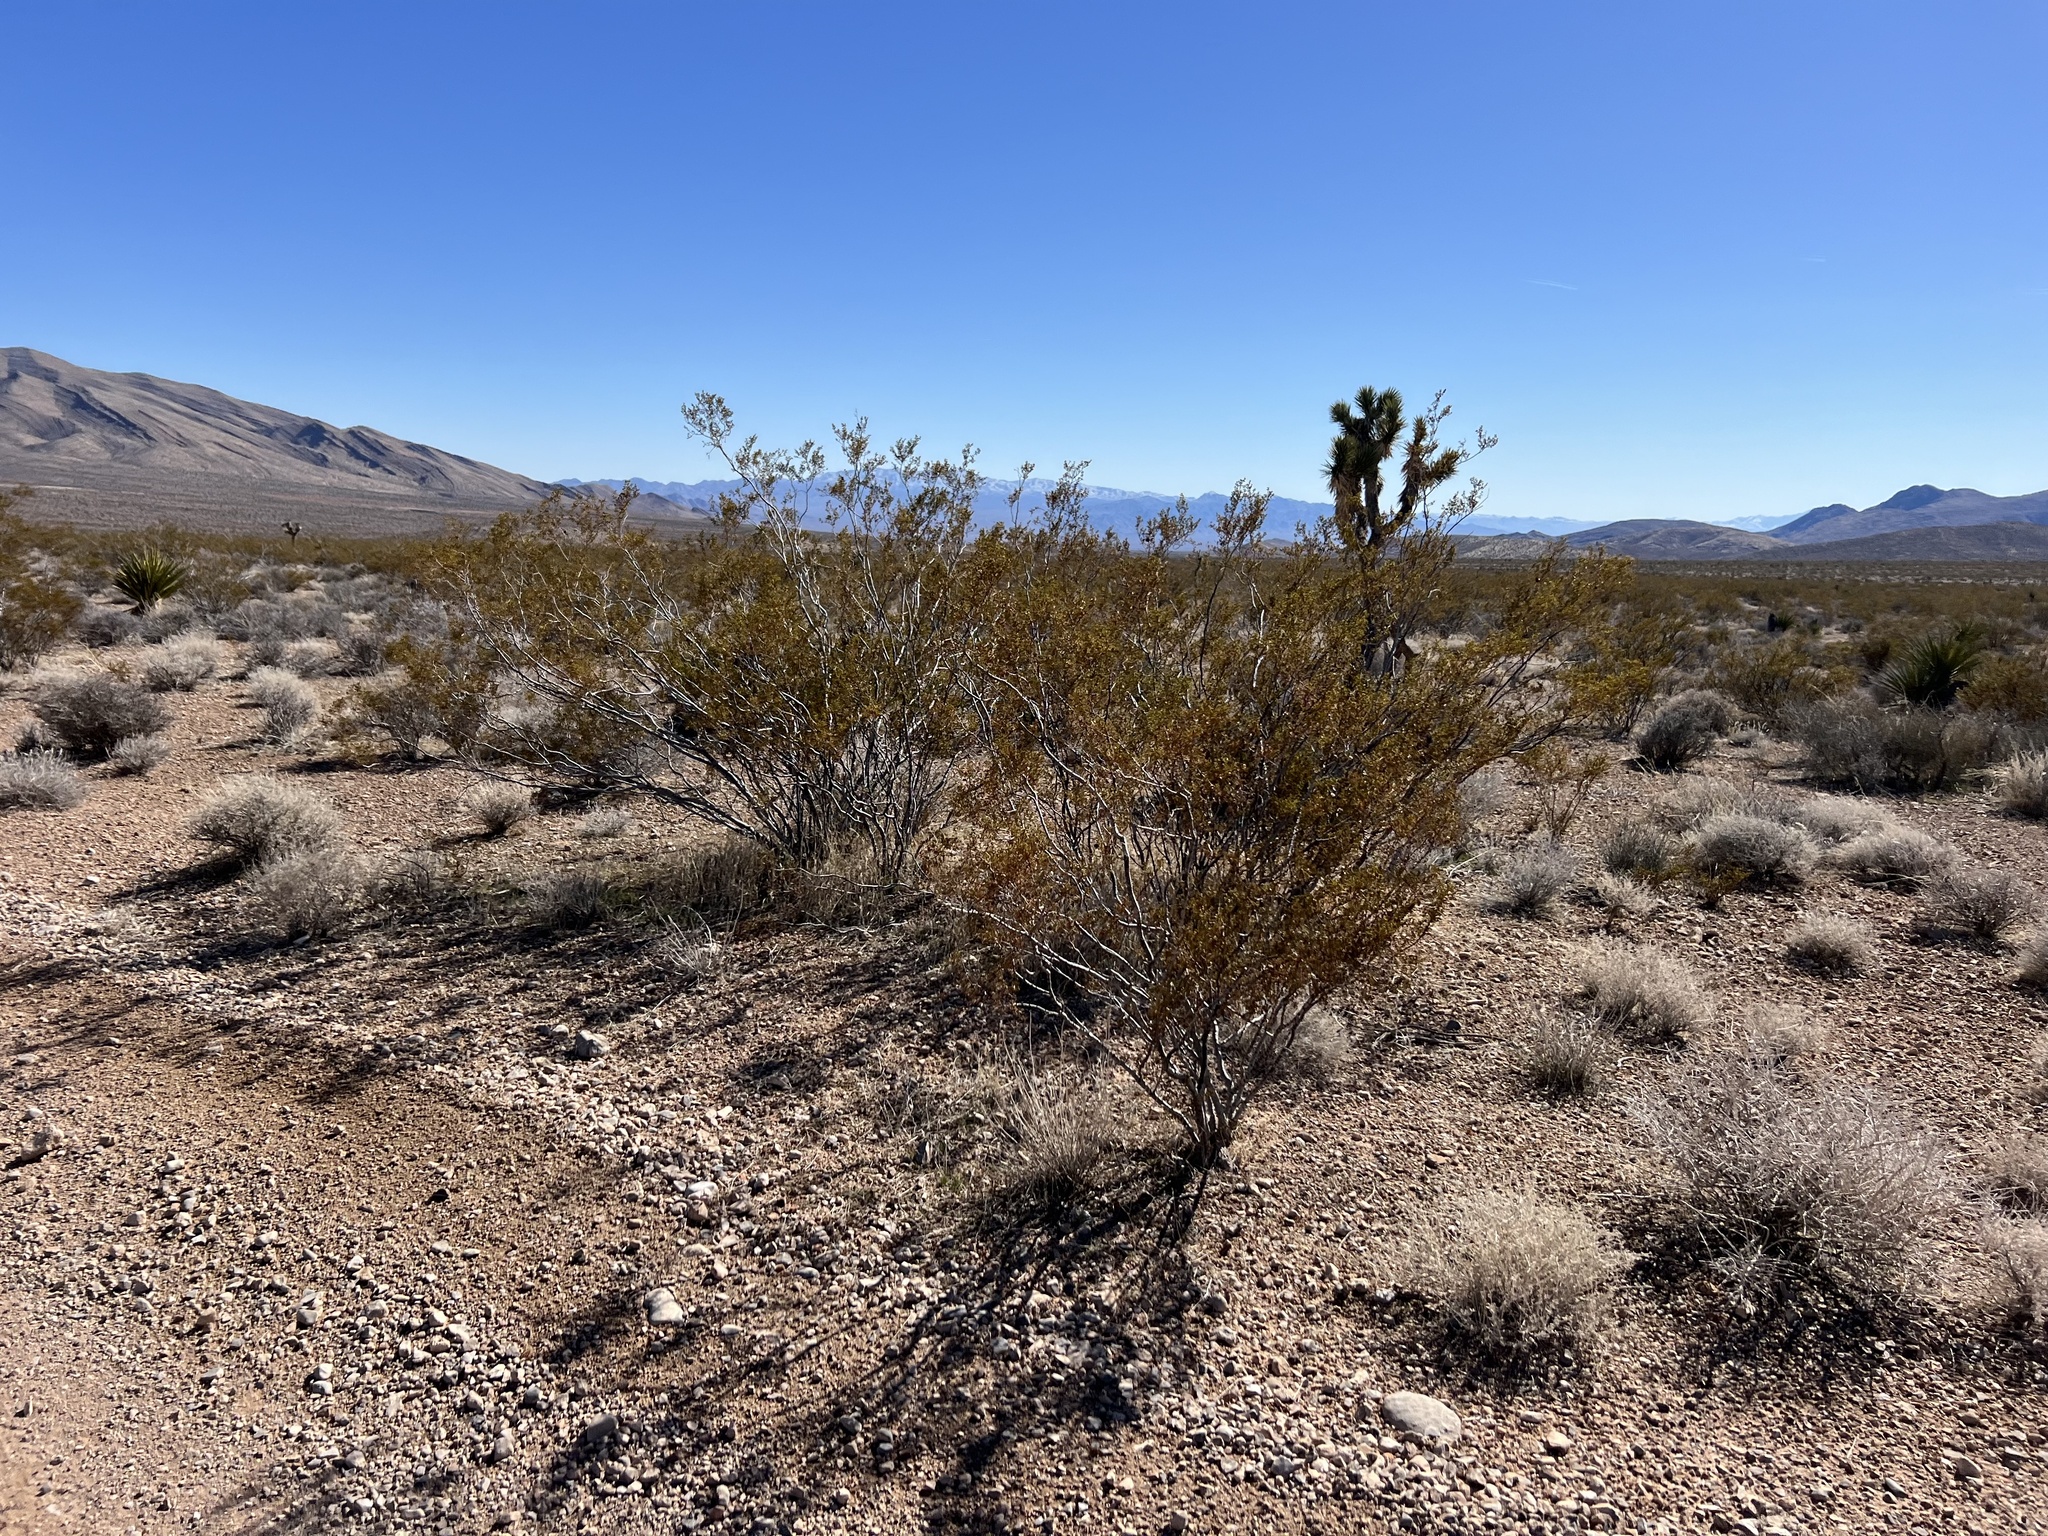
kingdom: Plantae
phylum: Tracheophyta
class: Magnoliopsida
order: Zygophyllales
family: Zygophyllaceae
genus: Larrea
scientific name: Larrea tridentata
